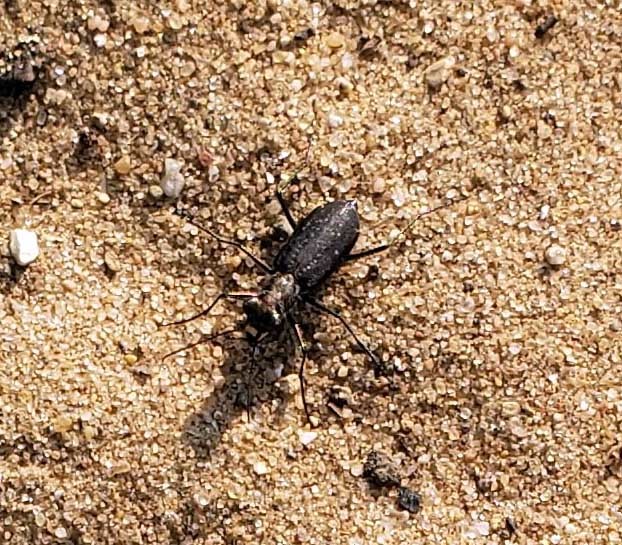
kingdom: Animalia
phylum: Arthropoda
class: Insecta
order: Coleoptera
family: Carabidae
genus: Cicindela
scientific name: Cicindela punctulata
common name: Punctured tiger beetle
